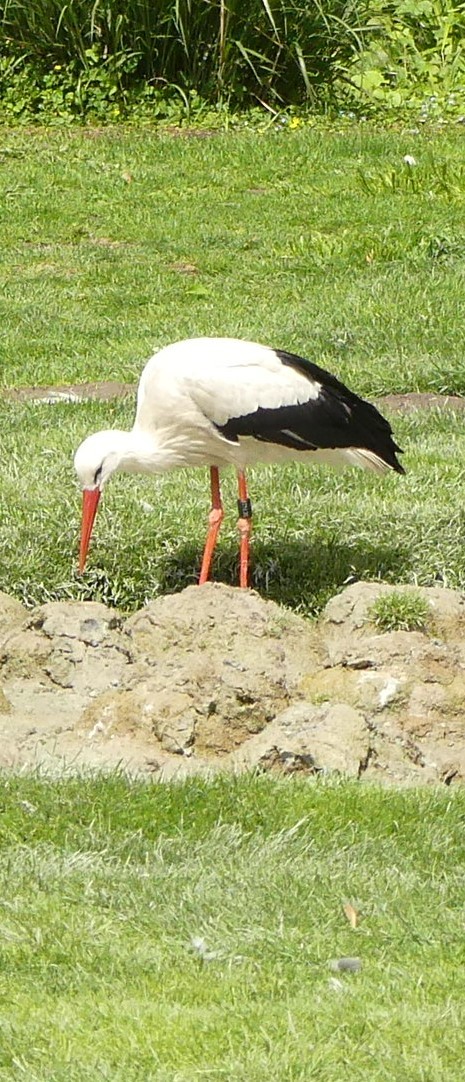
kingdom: Animalia
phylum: Chordata
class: Aves
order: Ciconiiformes
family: Ciconiidae
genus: Ciconia
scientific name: Ciconia ciconia
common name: White stork
